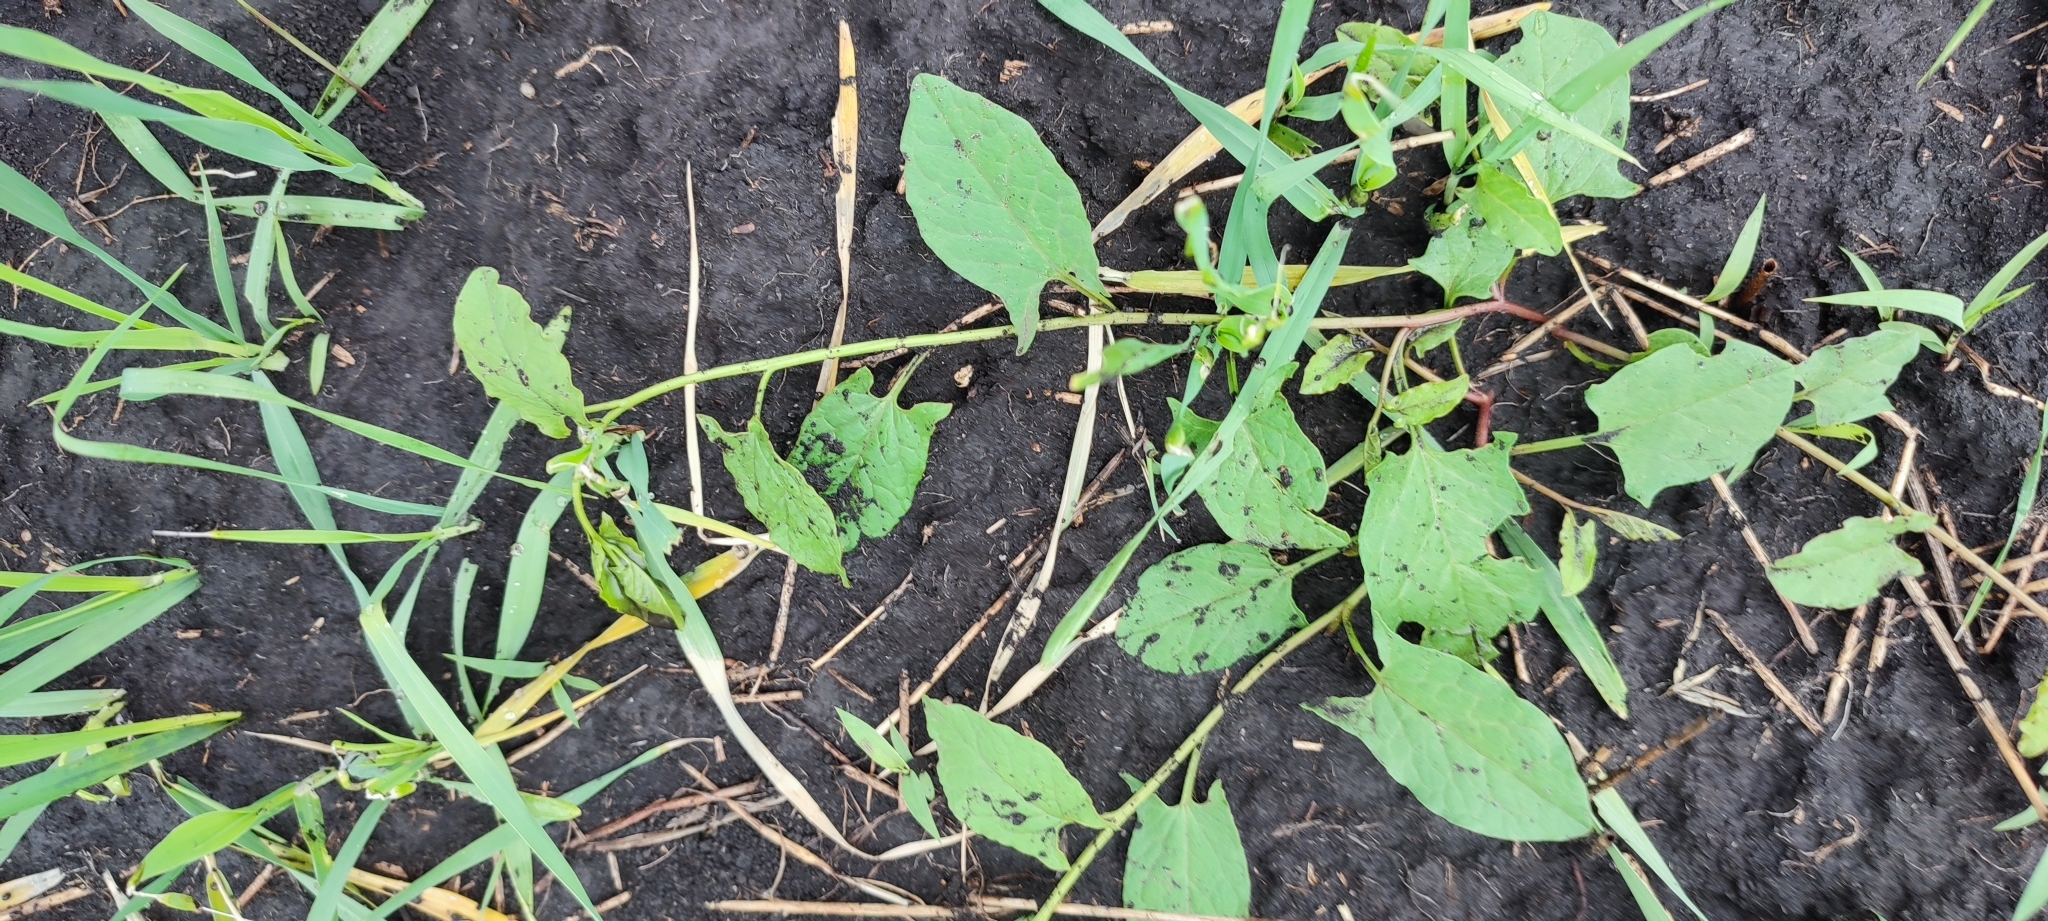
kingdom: Plantae
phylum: Tracheophyta
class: Magnoliopsida
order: Solanales
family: Convolvulaceae
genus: Convolvulus
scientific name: Convolvulus arvensis
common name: Field bindweed
